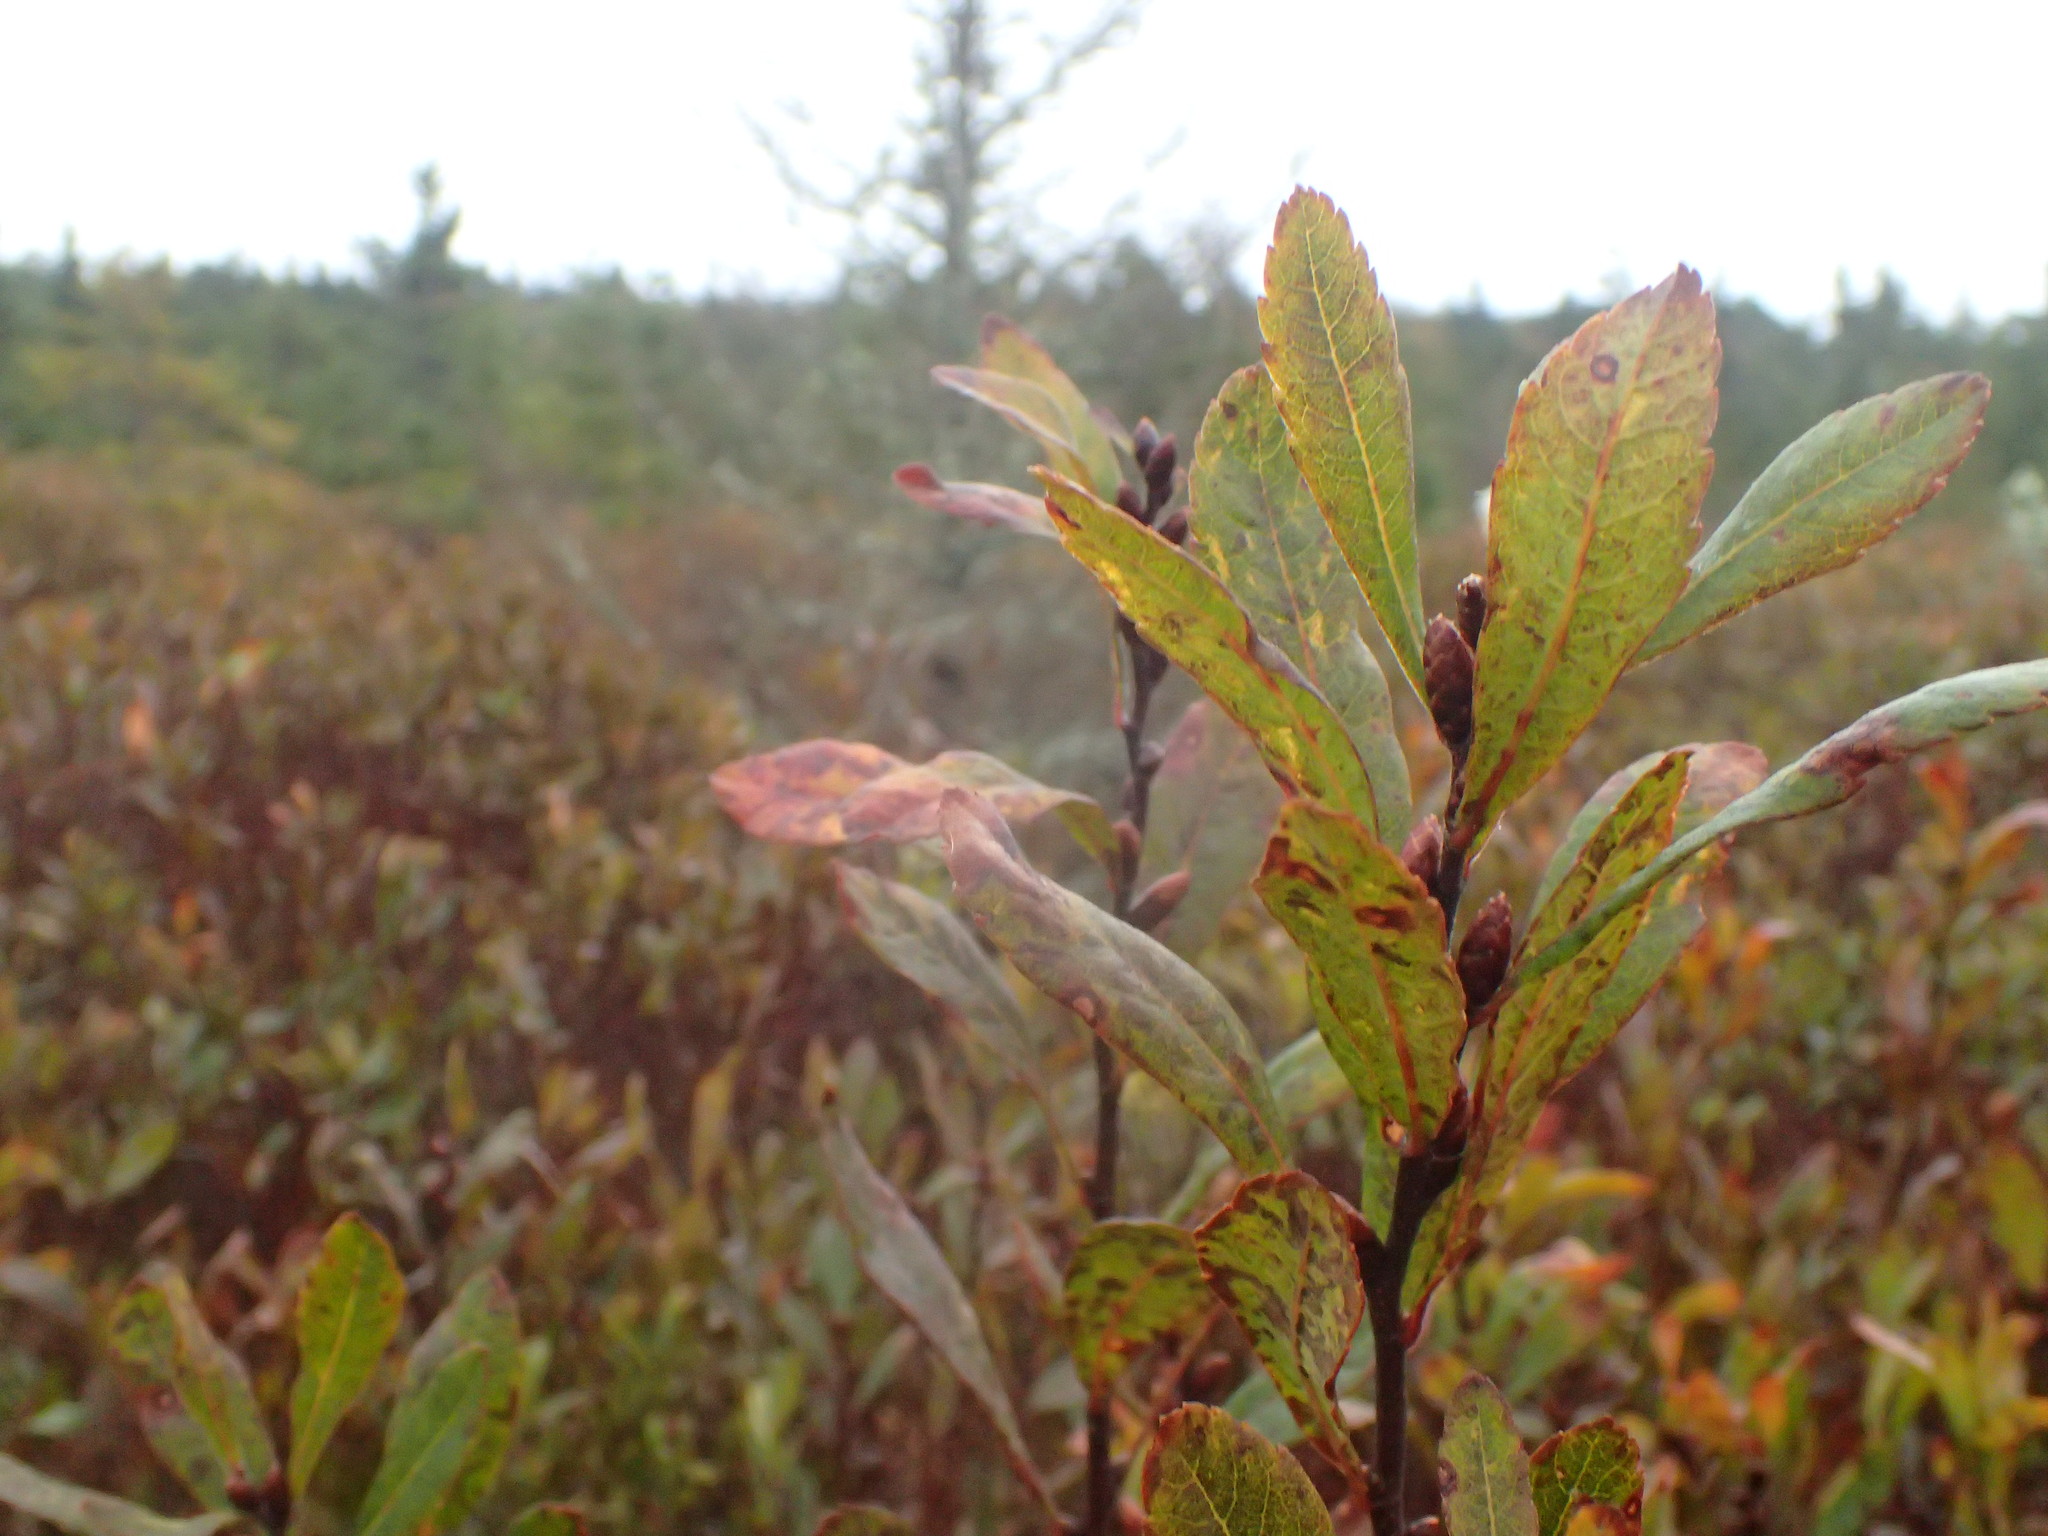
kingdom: Plantae
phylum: Tracheophyta
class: Magnoliopsida
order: Fagales
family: Myricaceae
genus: Myrica
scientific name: Myrica gale
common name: Sweet gale
